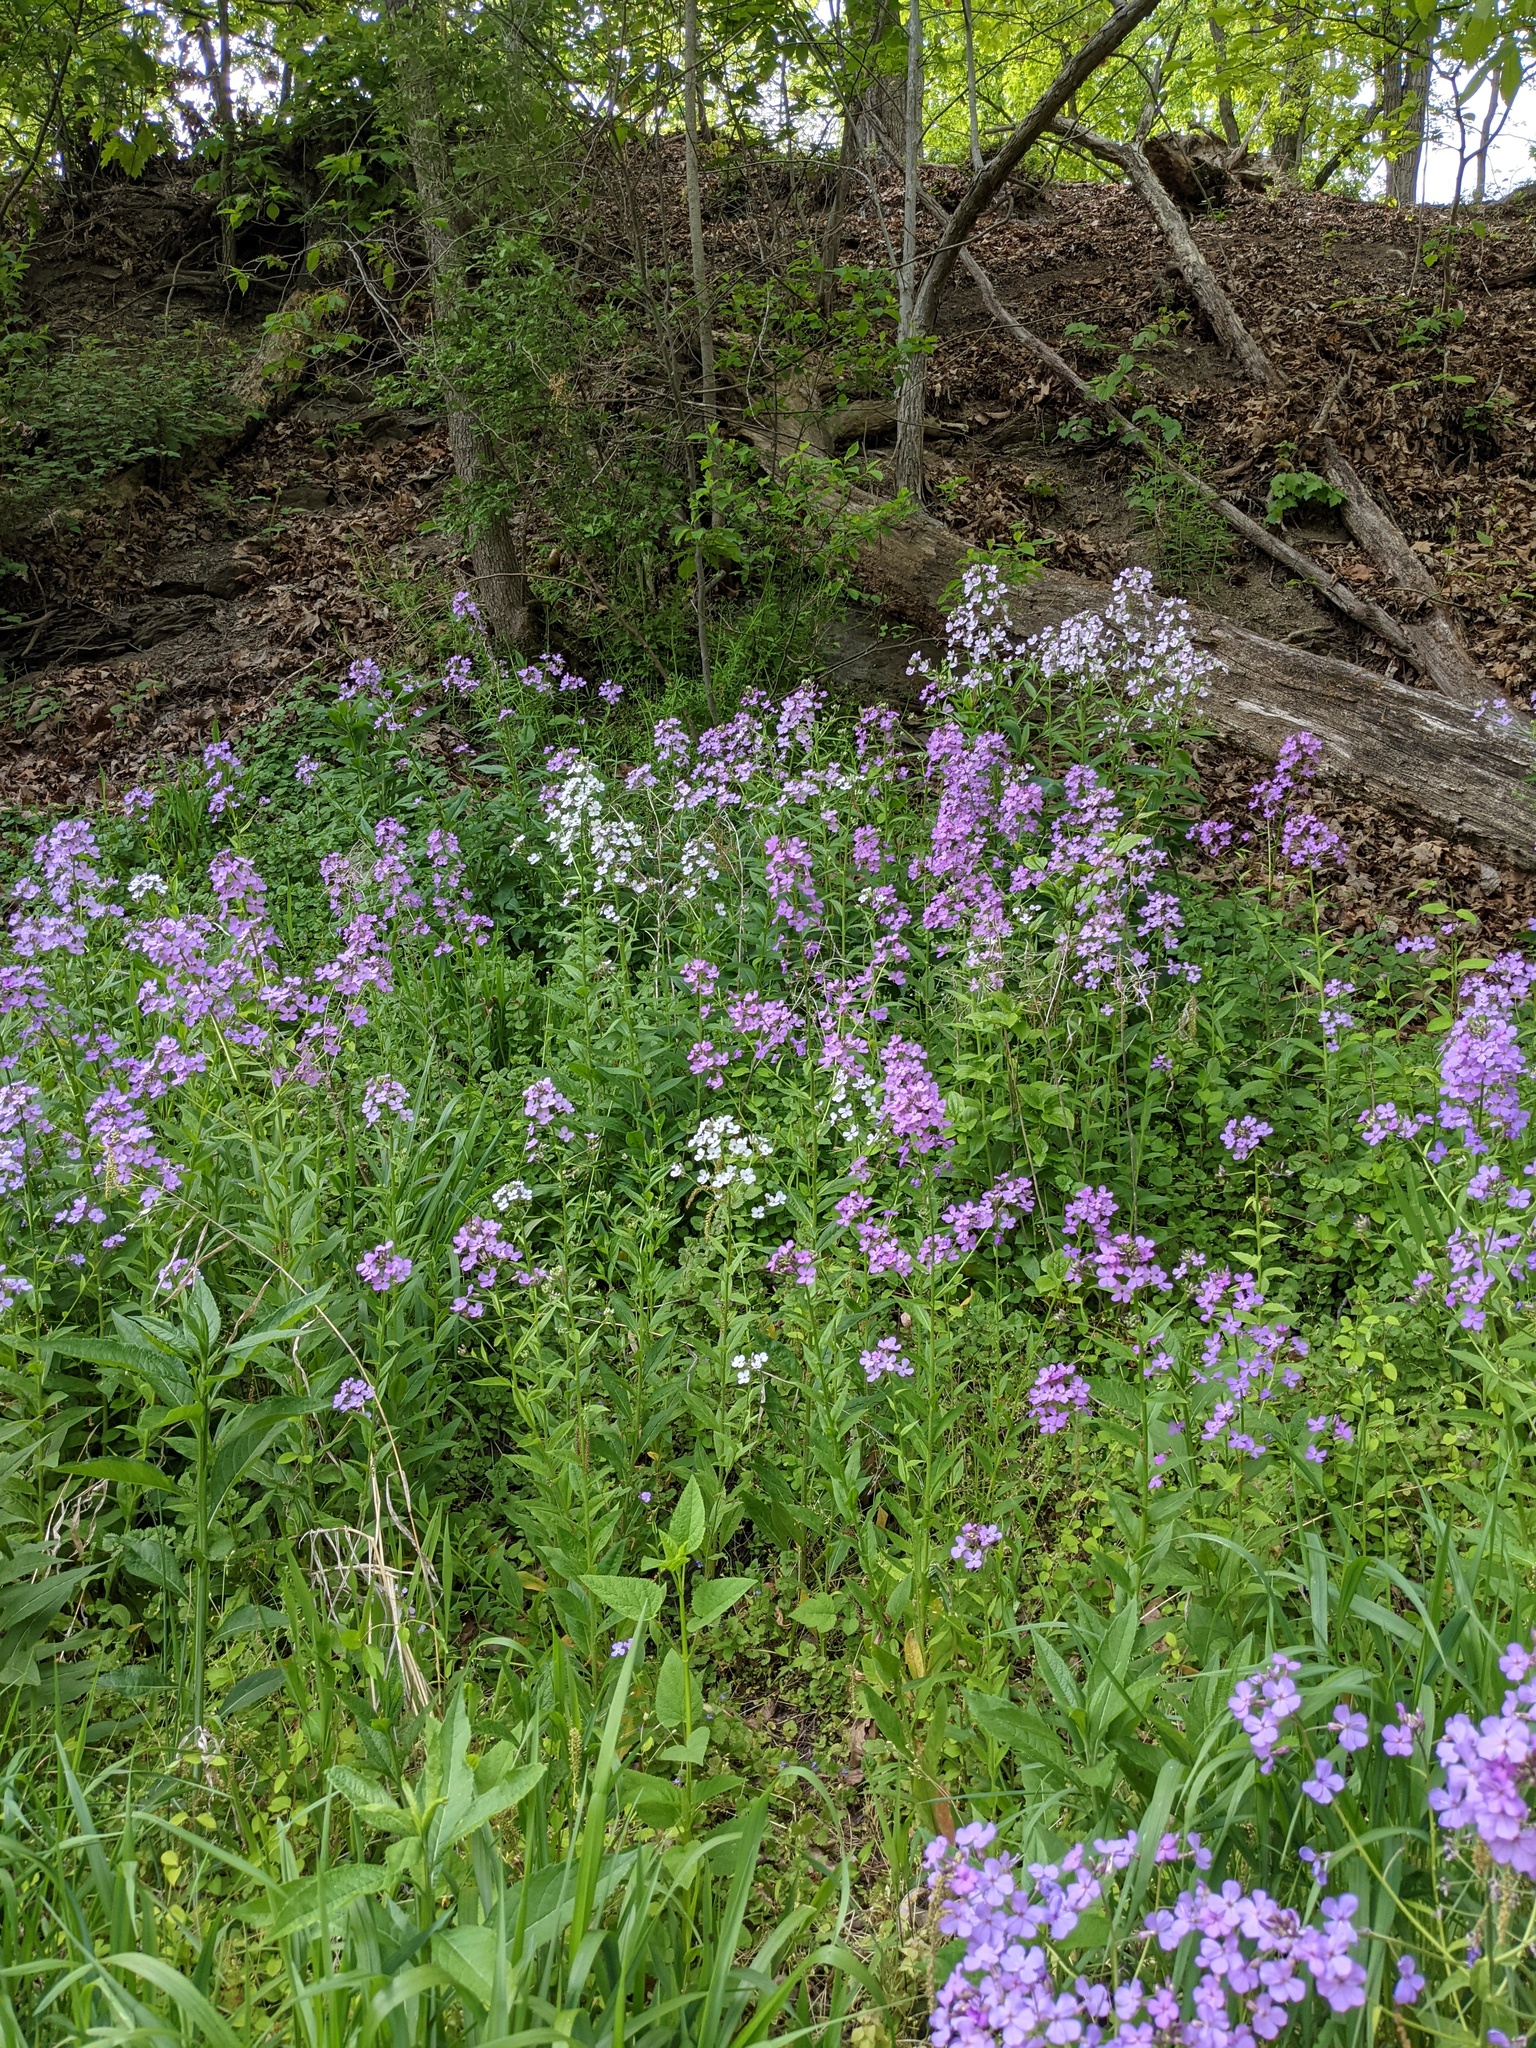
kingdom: Plantae
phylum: Tracheophyta
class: Magnoliopsida
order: Brassicales
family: Brassicaceae
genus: Hesperis
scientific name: Hesperis matronalis
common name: Dame's-violet
